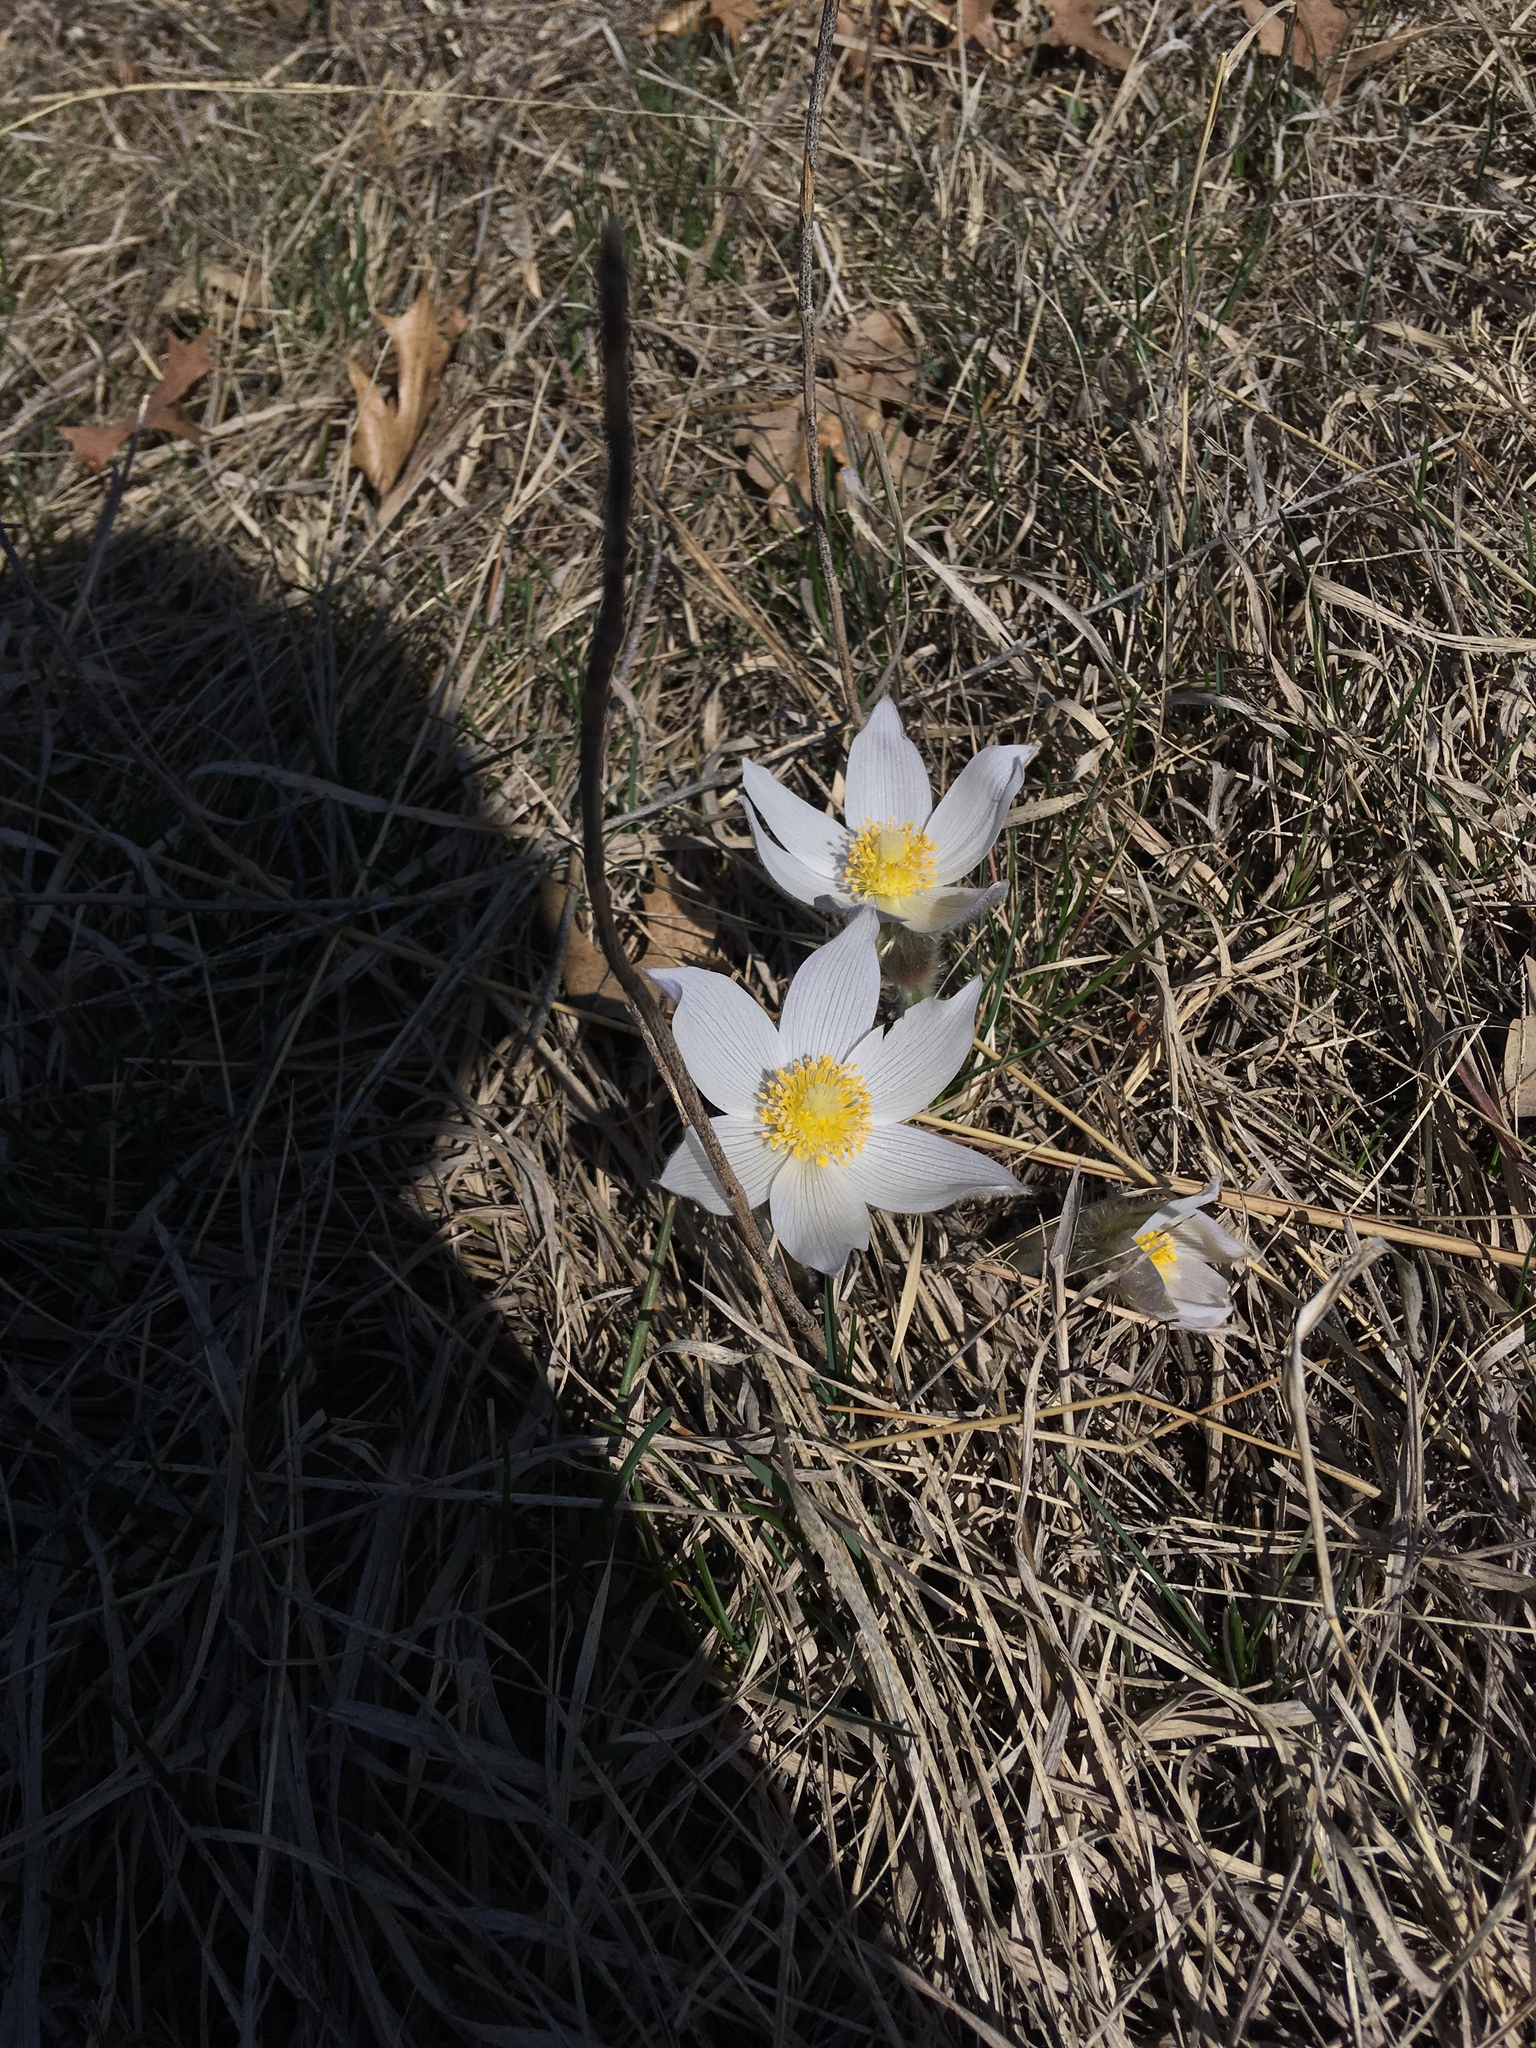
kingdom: Plantae
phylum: Tracheophyta
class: Magnoliopsida
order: Ranunculales
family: Ranunculaceae
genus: Pulsatilla
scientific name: Pulsatilla nuttalliana
